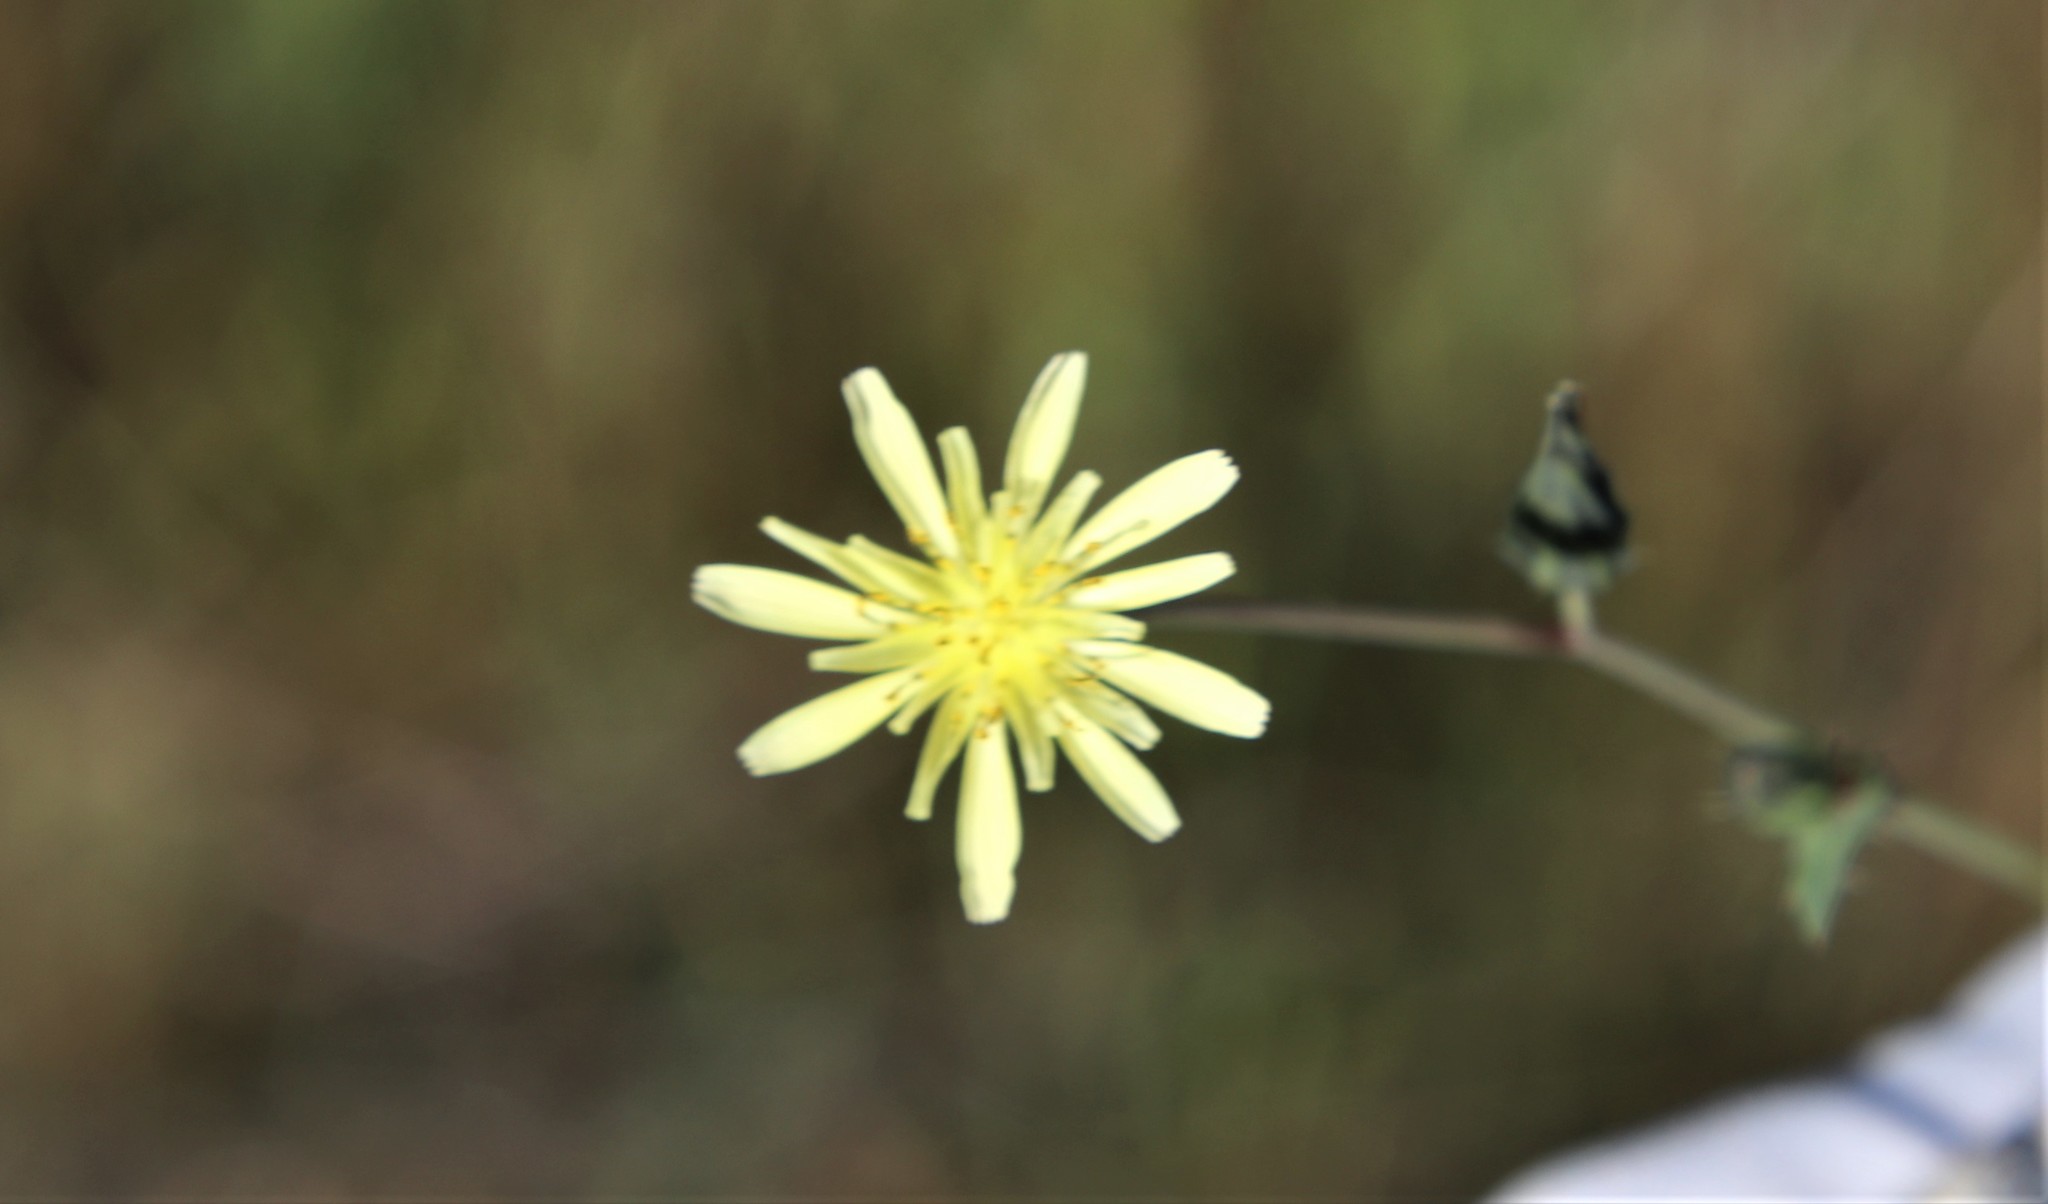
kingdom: Plantae
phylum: Tracheophyta
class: Magnoliopsida
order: Asterales
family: Asteraceae
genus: Sonchus
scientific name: Sonchus oleraceus
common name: Common sowthistle
